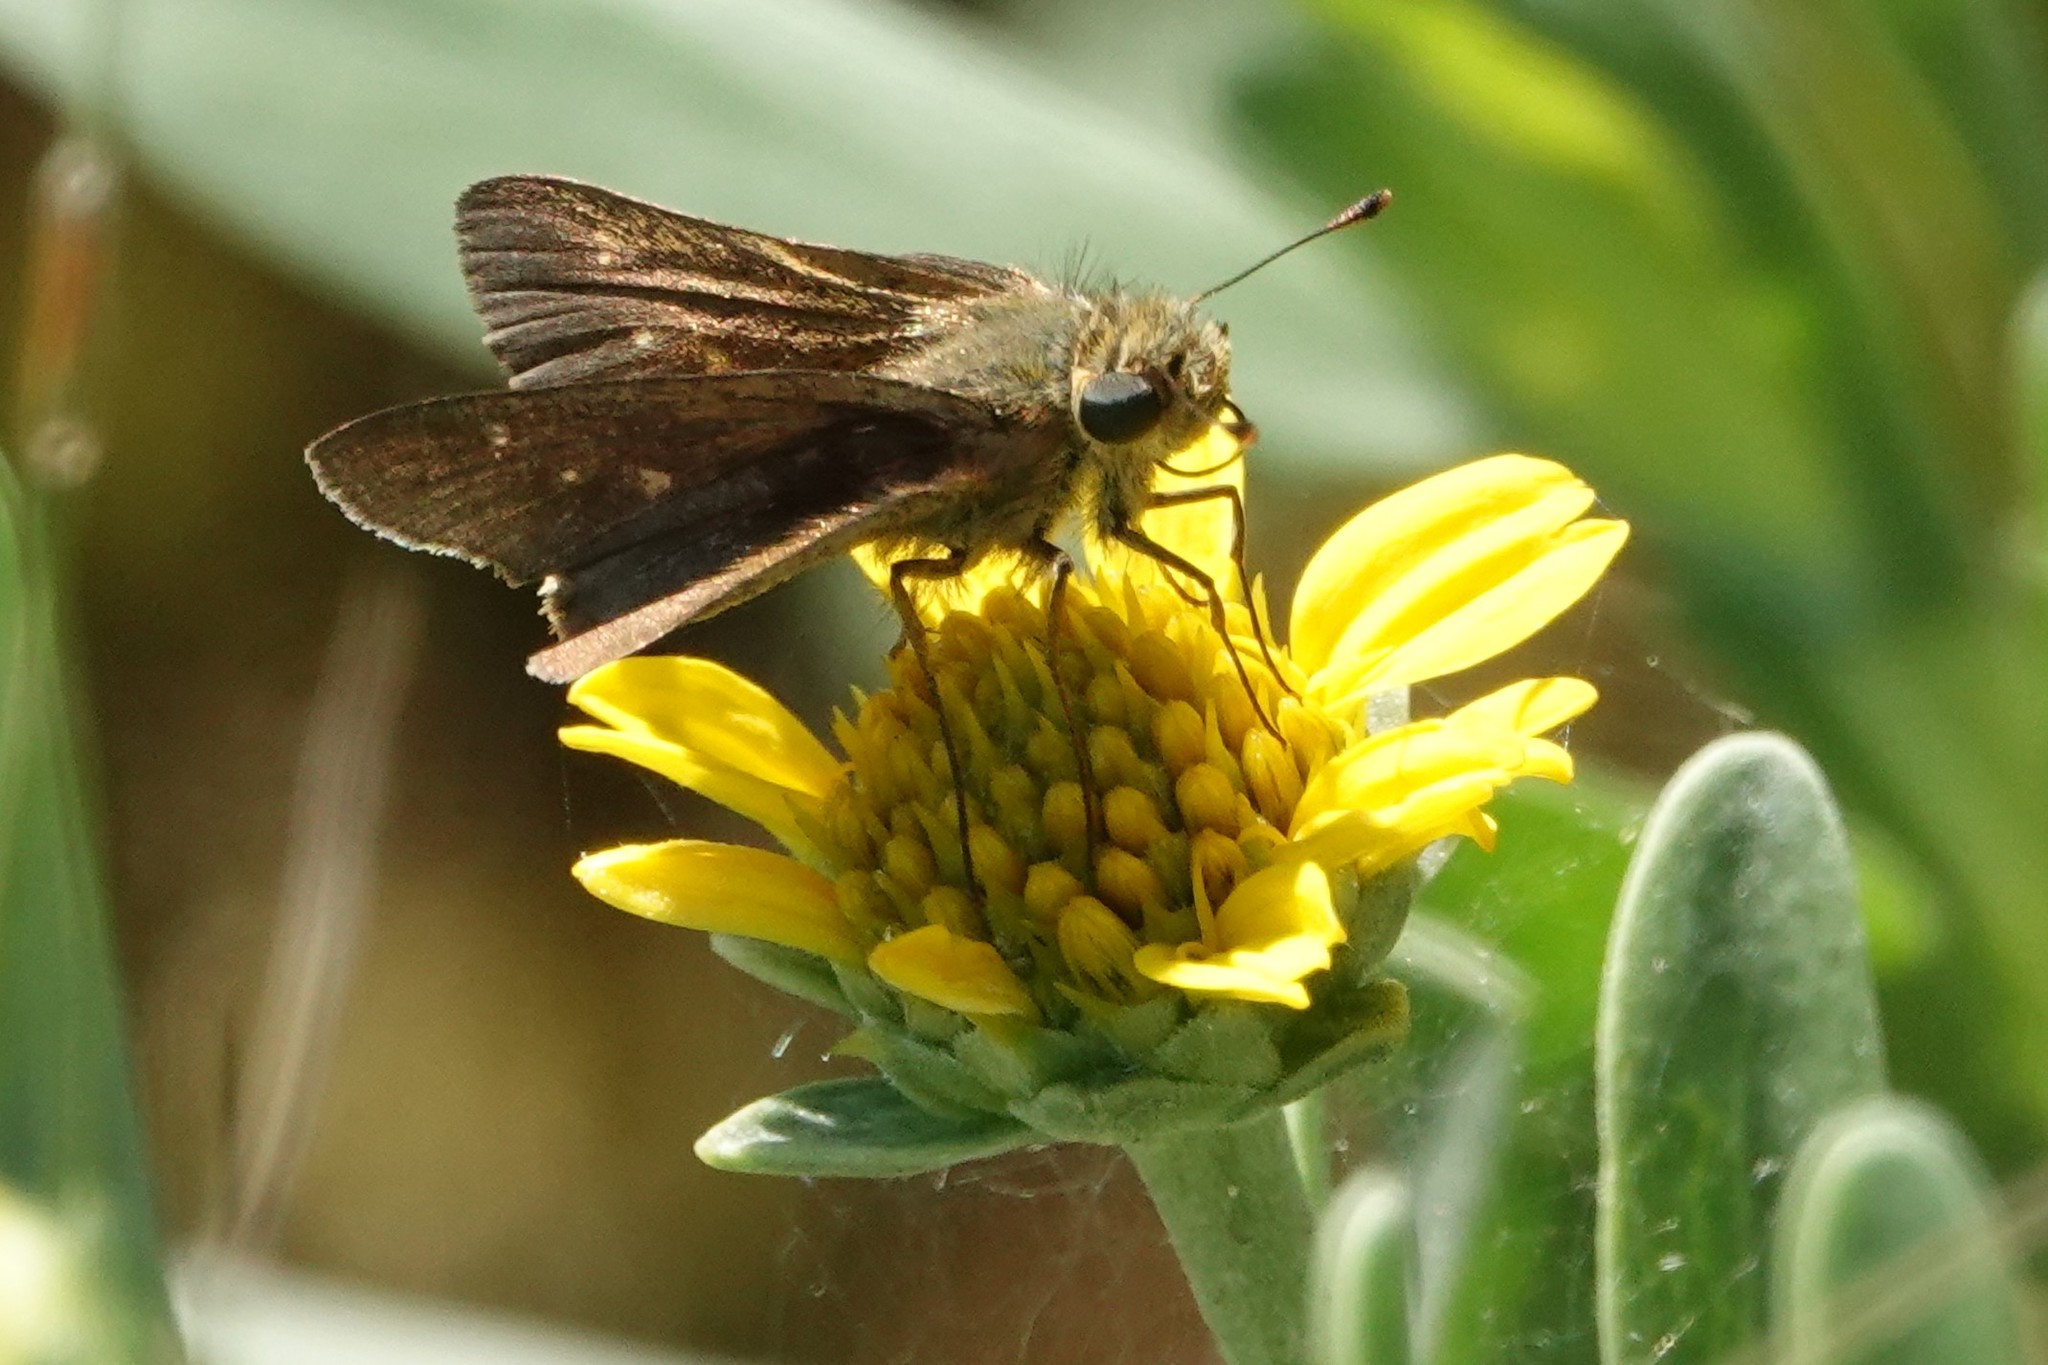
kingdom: Animalia
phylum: Arthropoda
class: Insecta
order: Lepidoptera
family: Hesperiidae
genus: Panoquina
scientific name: Panoquina panoquinoides
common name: Beach skipper
